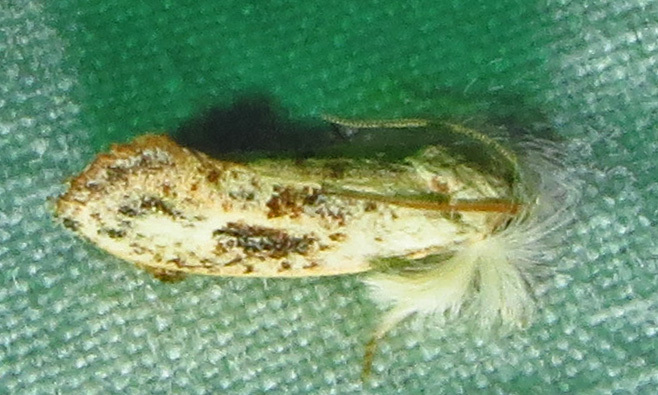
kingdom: Animalia
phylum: Arthropoda
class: Insecta
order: Lepidoptera
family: Tineidae
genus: Acrolophus
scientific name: Acrolophus mycetophagus
